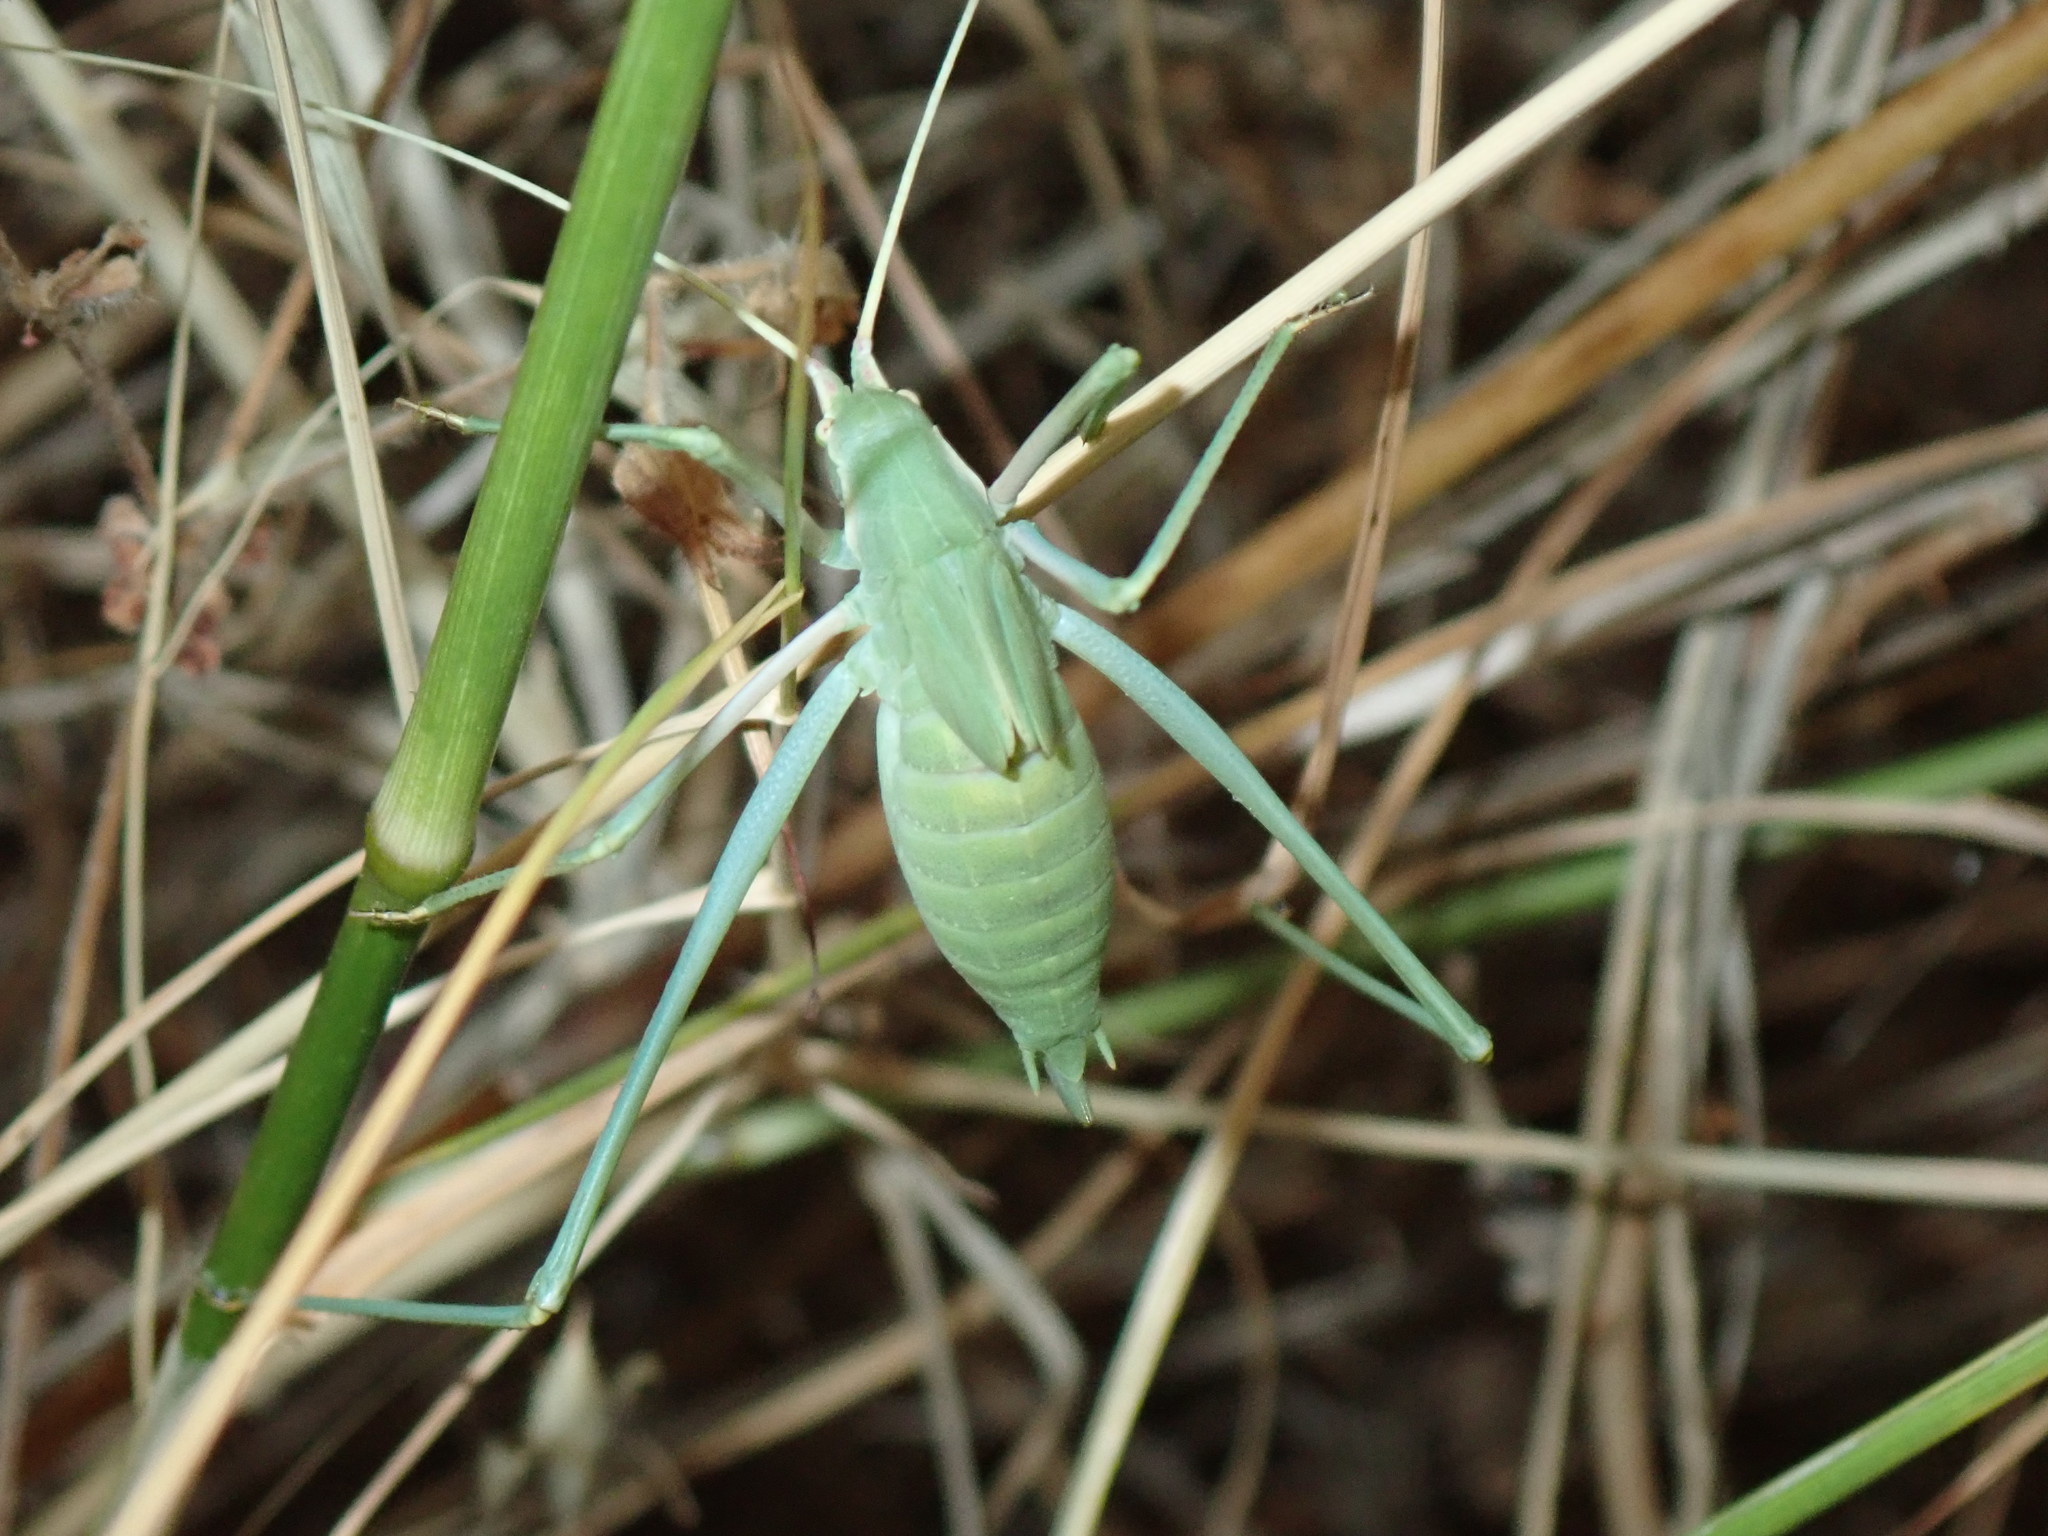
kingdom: Animalia
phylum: Arthropoda
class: Insecta
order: Orthoptera
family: Tettigoniidae
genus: Acrometopa
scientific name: Acrometopa macropoda
